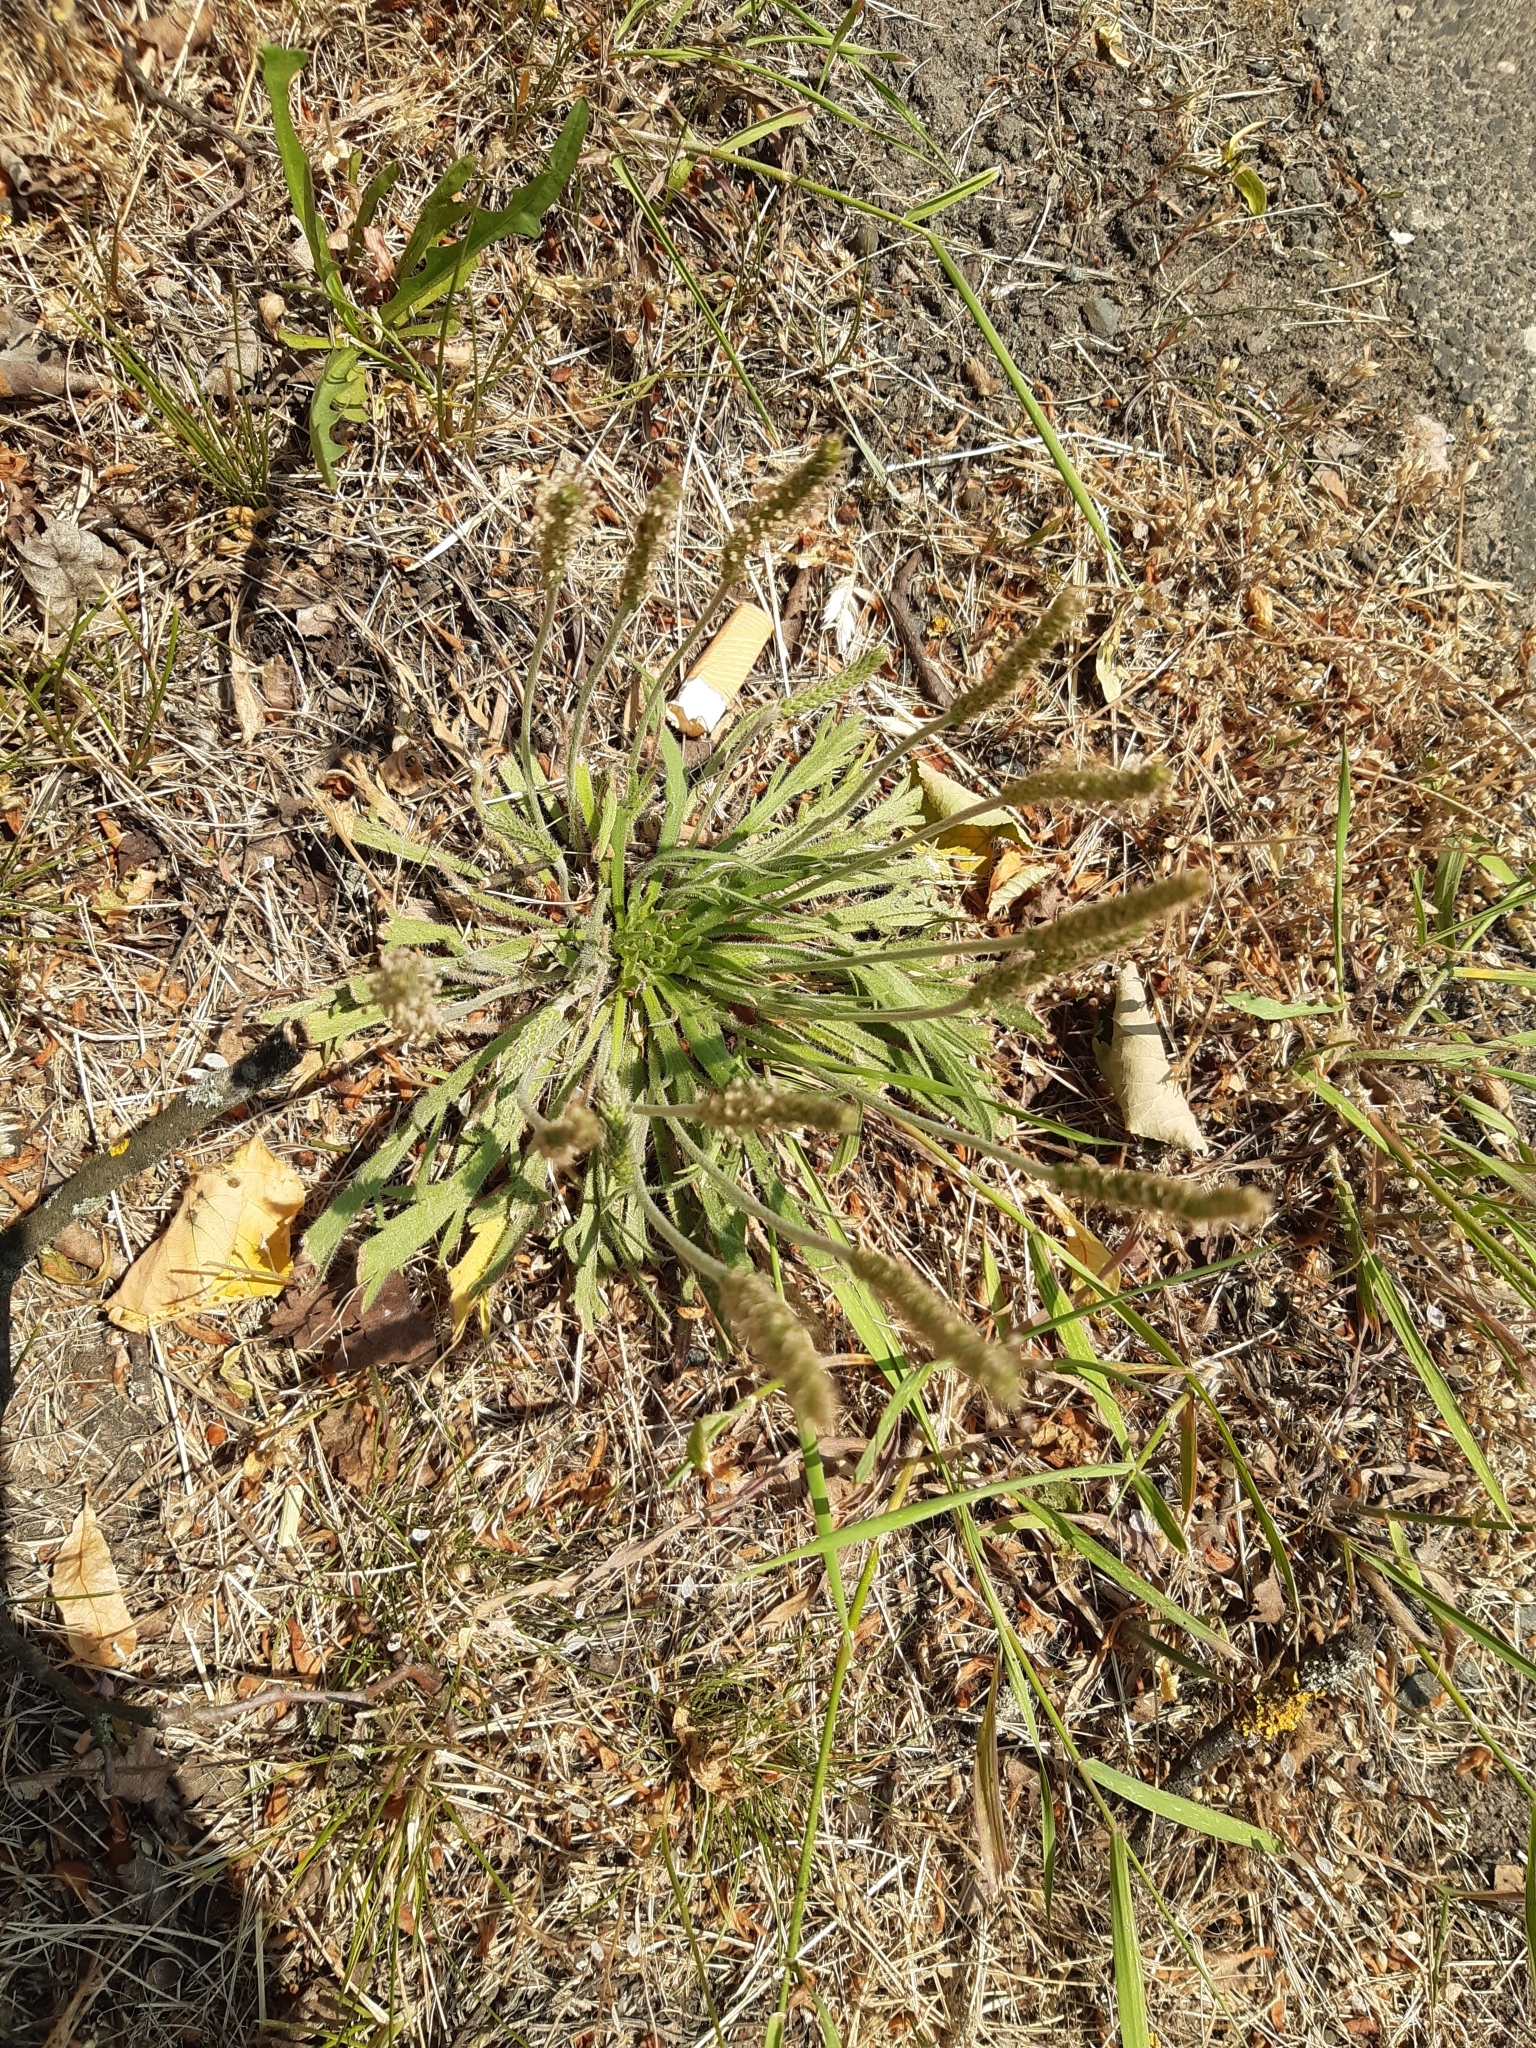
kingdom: Plantae
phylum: Tracheophyta
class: Magnoliopsida
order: Lamiales
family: Plantaginaceae
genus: Plantago
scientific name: Plantago coronopus
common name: Buck's-horn plantain
